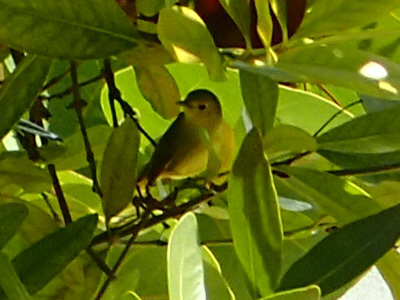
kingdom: Animalia
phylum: Chordata
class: Aves
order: Passeriformes
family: Parulidae
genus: Setophaga
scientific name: Setophaga petechia
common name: Yellow warbler
